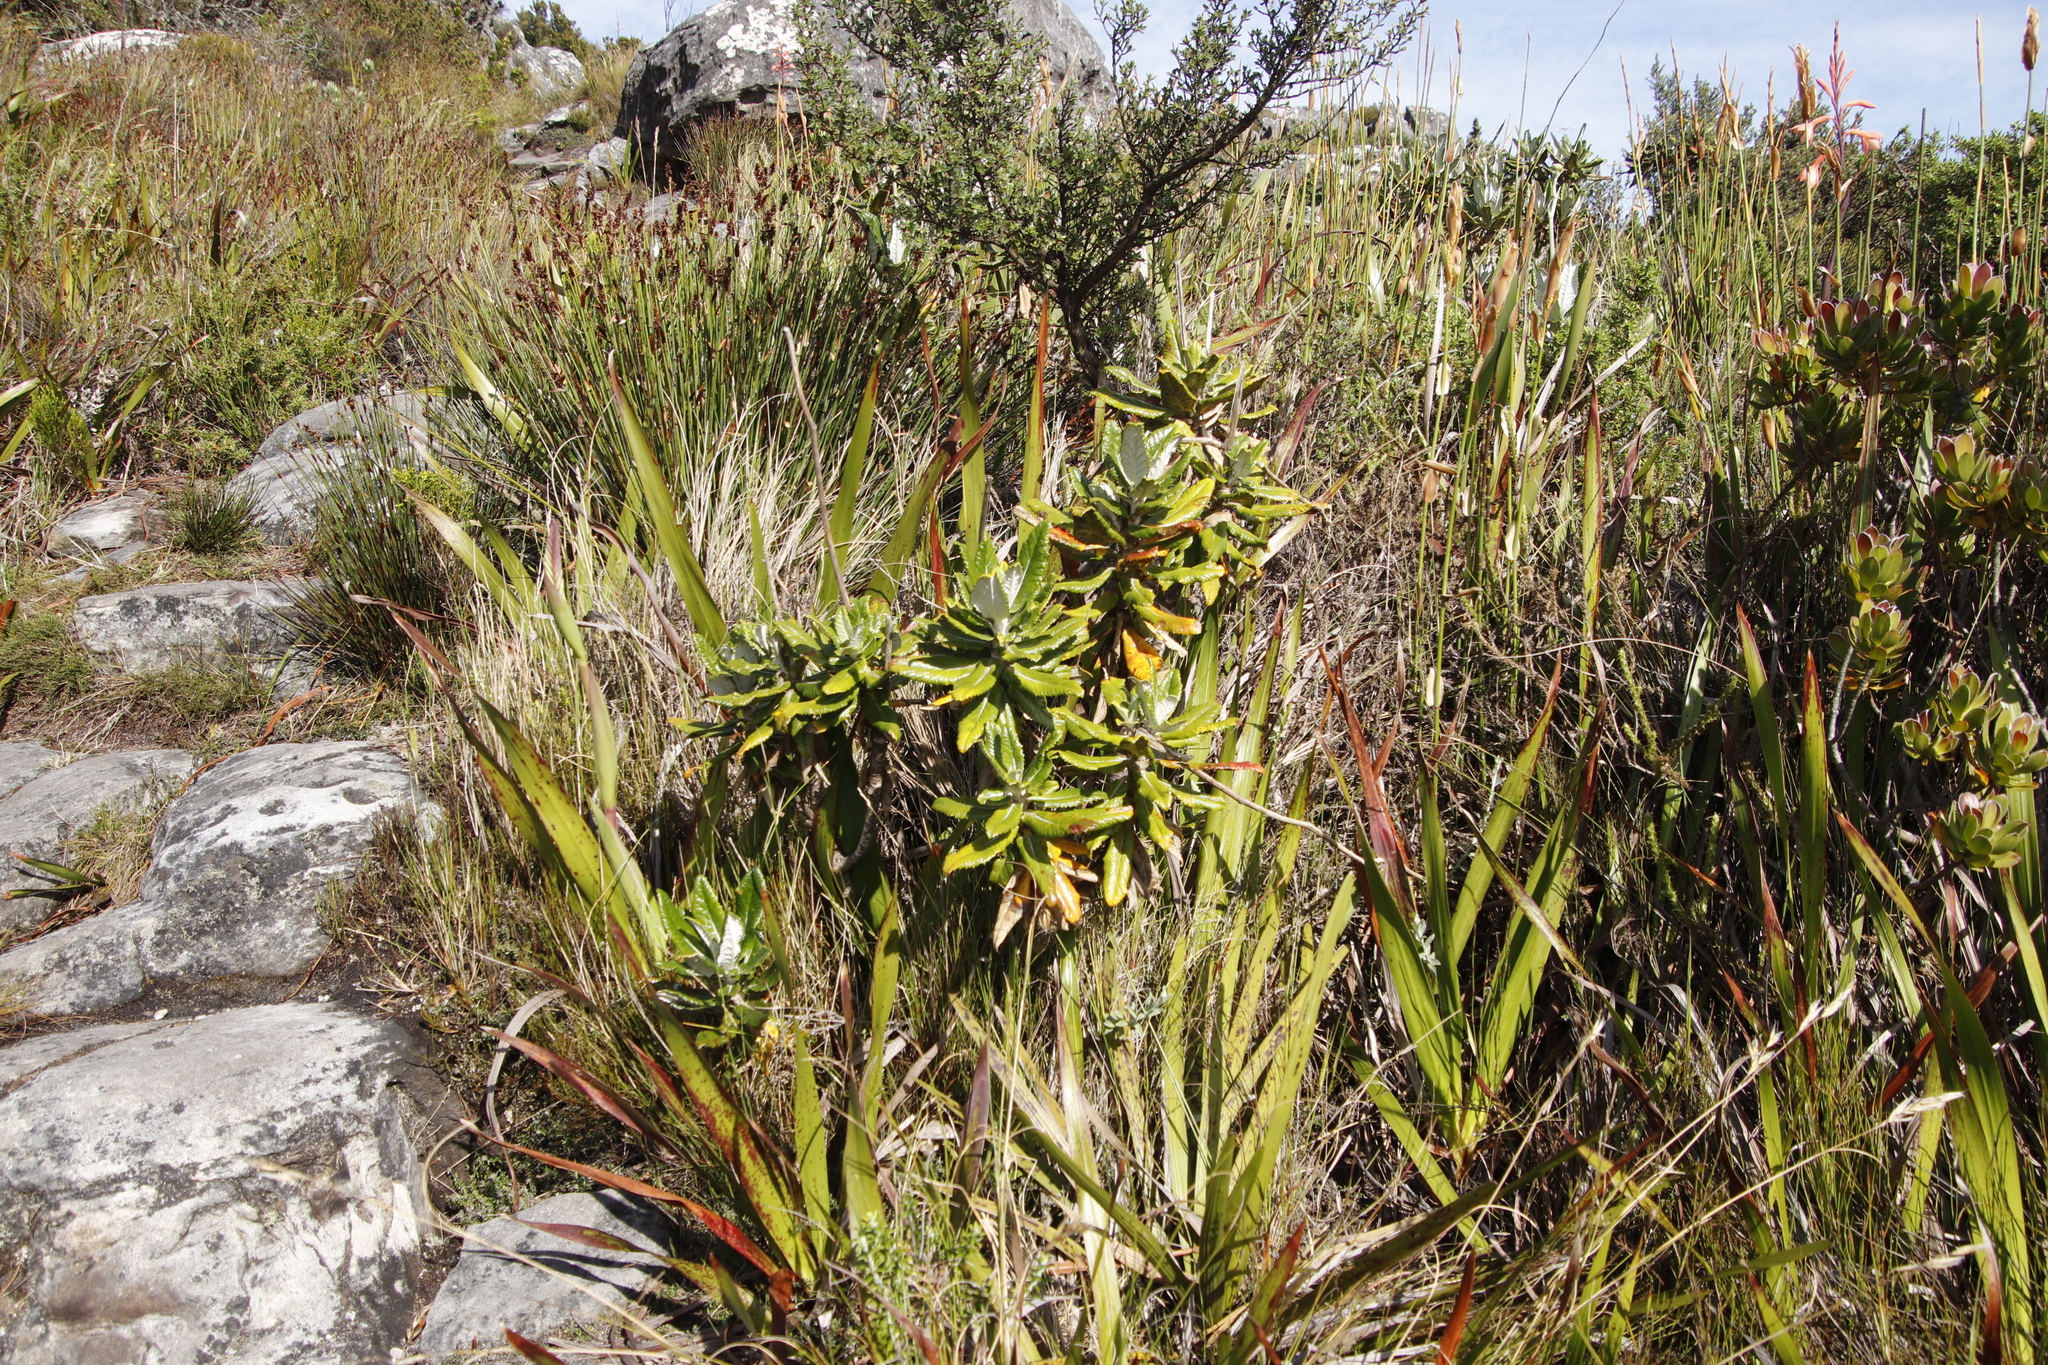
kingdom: Plantae
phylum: Tracheophyta
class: Magnoliopsida
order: Apiales
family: Apiaceae
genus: Hermas
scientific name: Hermas villosa
